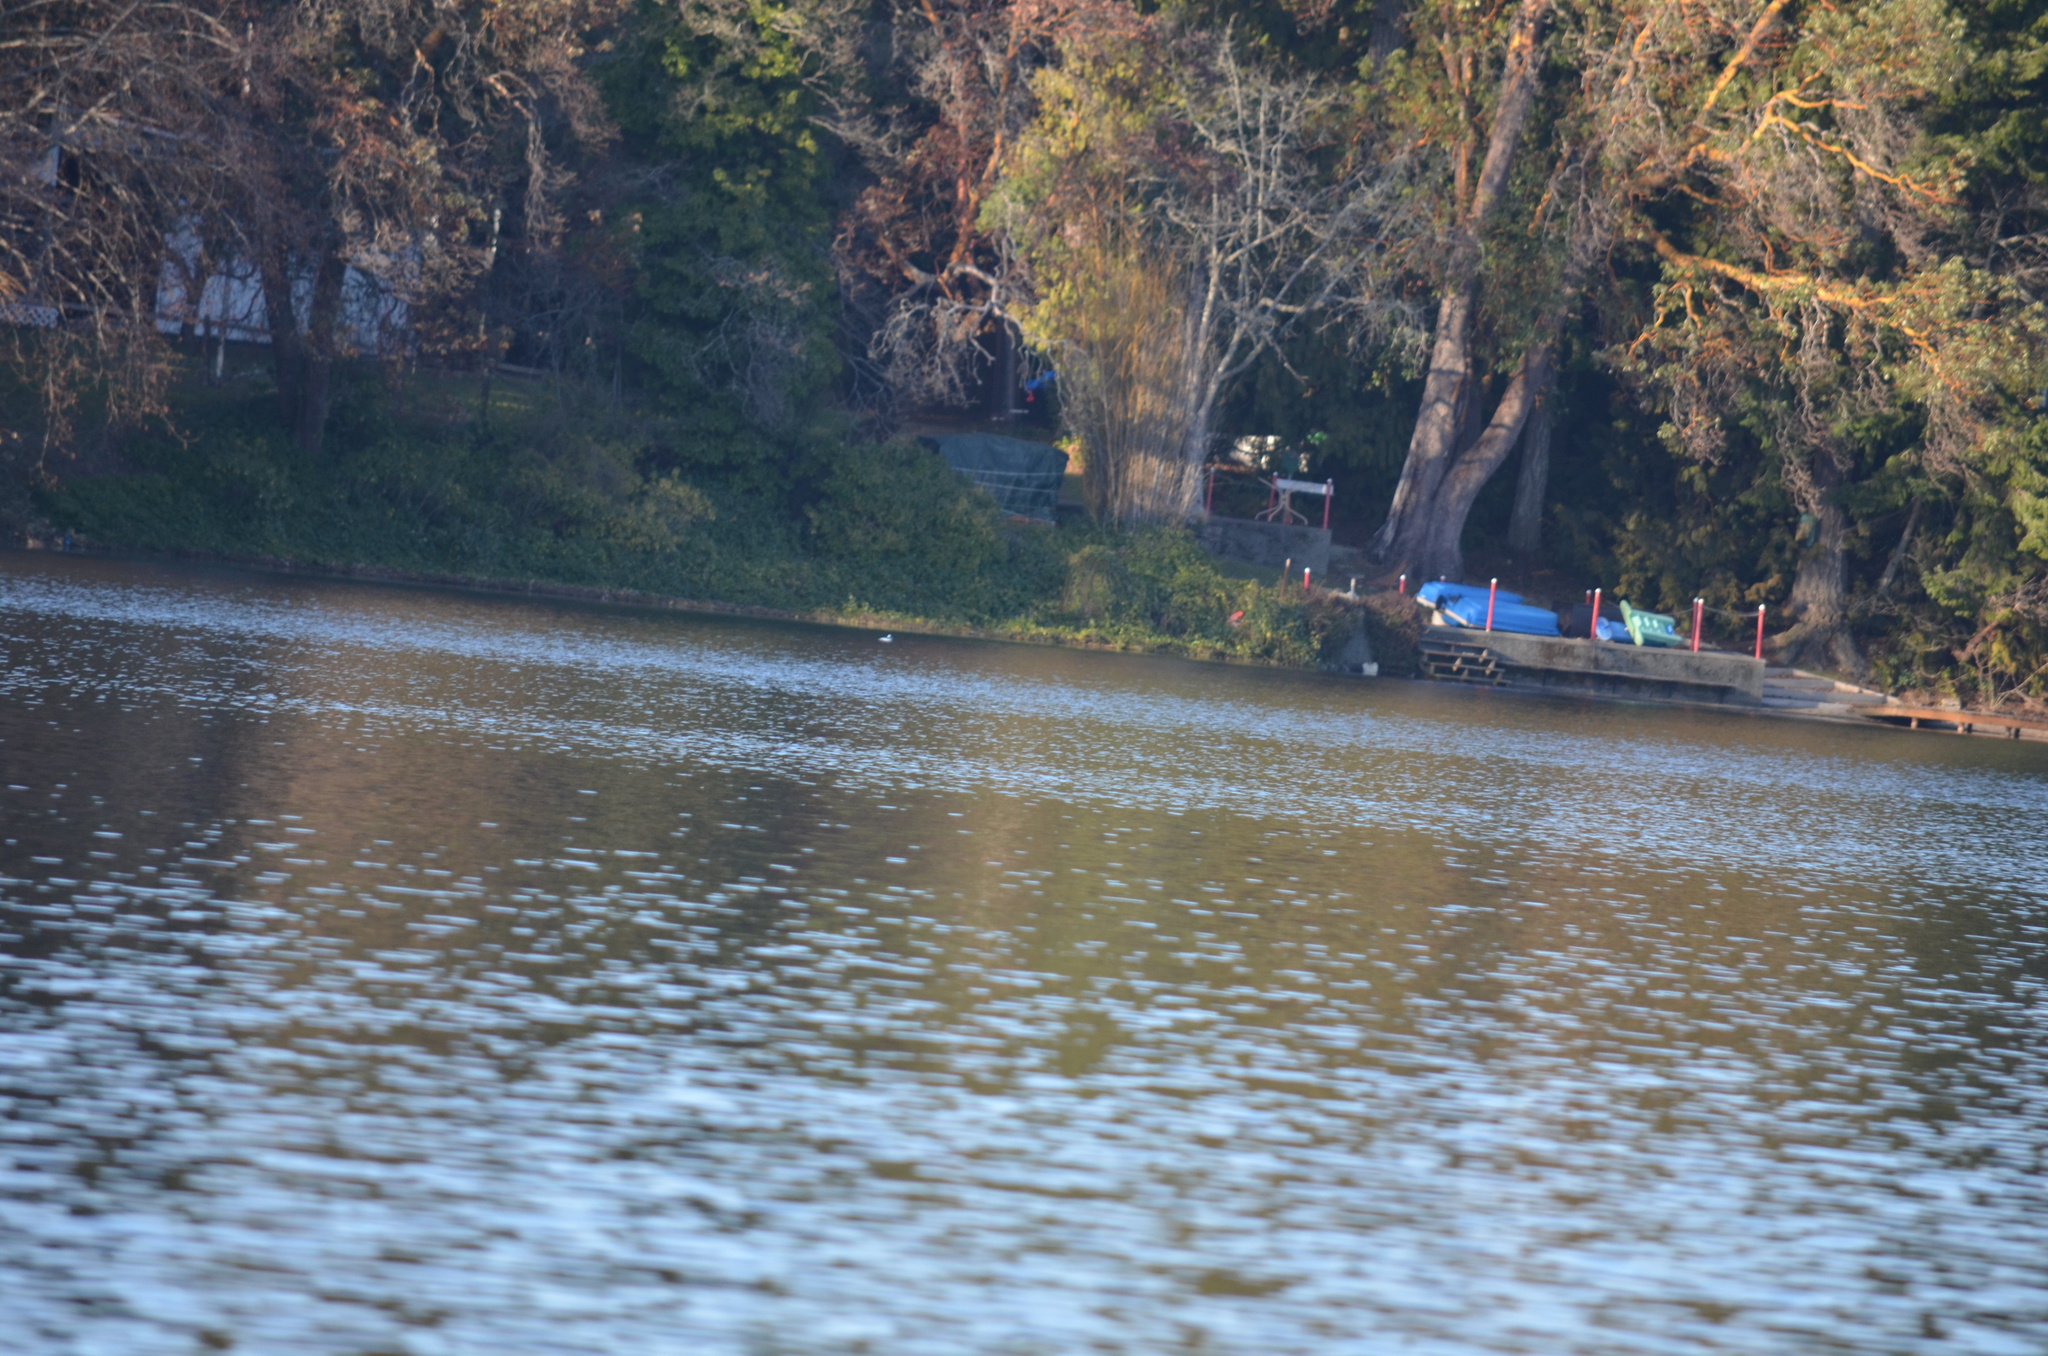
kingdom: Animalia
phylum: Chordata
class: Aves
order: Anseriformes
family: Anatidae
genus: Bucephala
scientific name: Bucephala albeola
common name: Bufflehead
